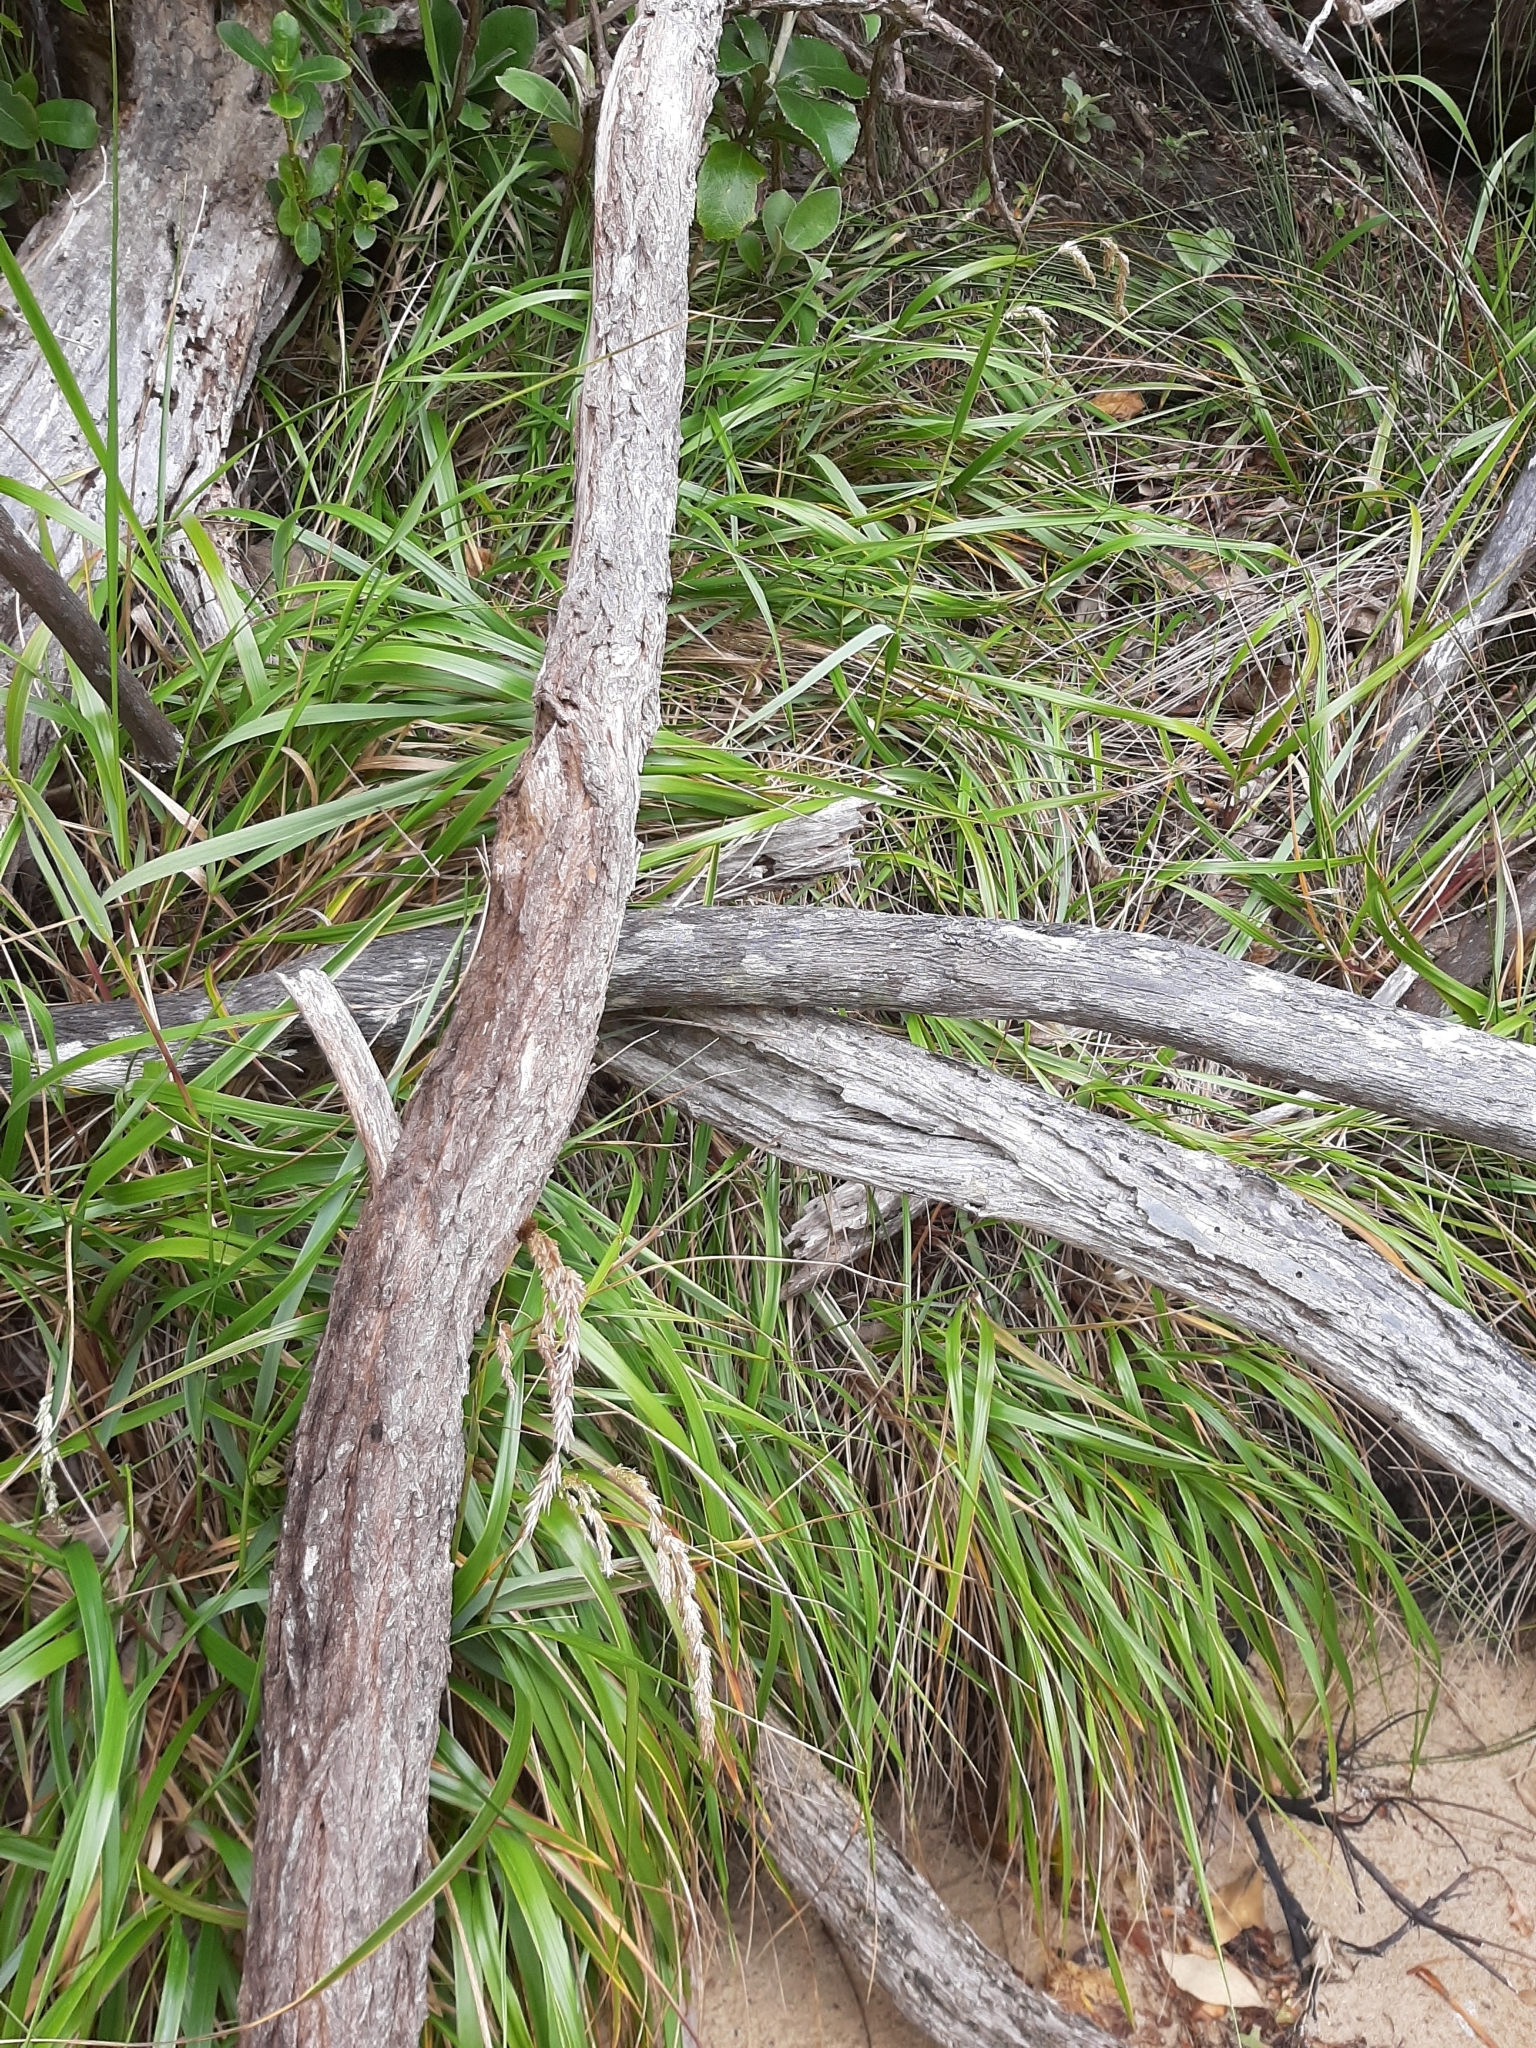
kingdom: Plantae
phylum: Tracheophyta
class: Liliopsida
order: Poales
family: Poaceae
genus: Anthoxanthum
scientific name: Anthoxanthum redolens
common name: Sweet holy grass
